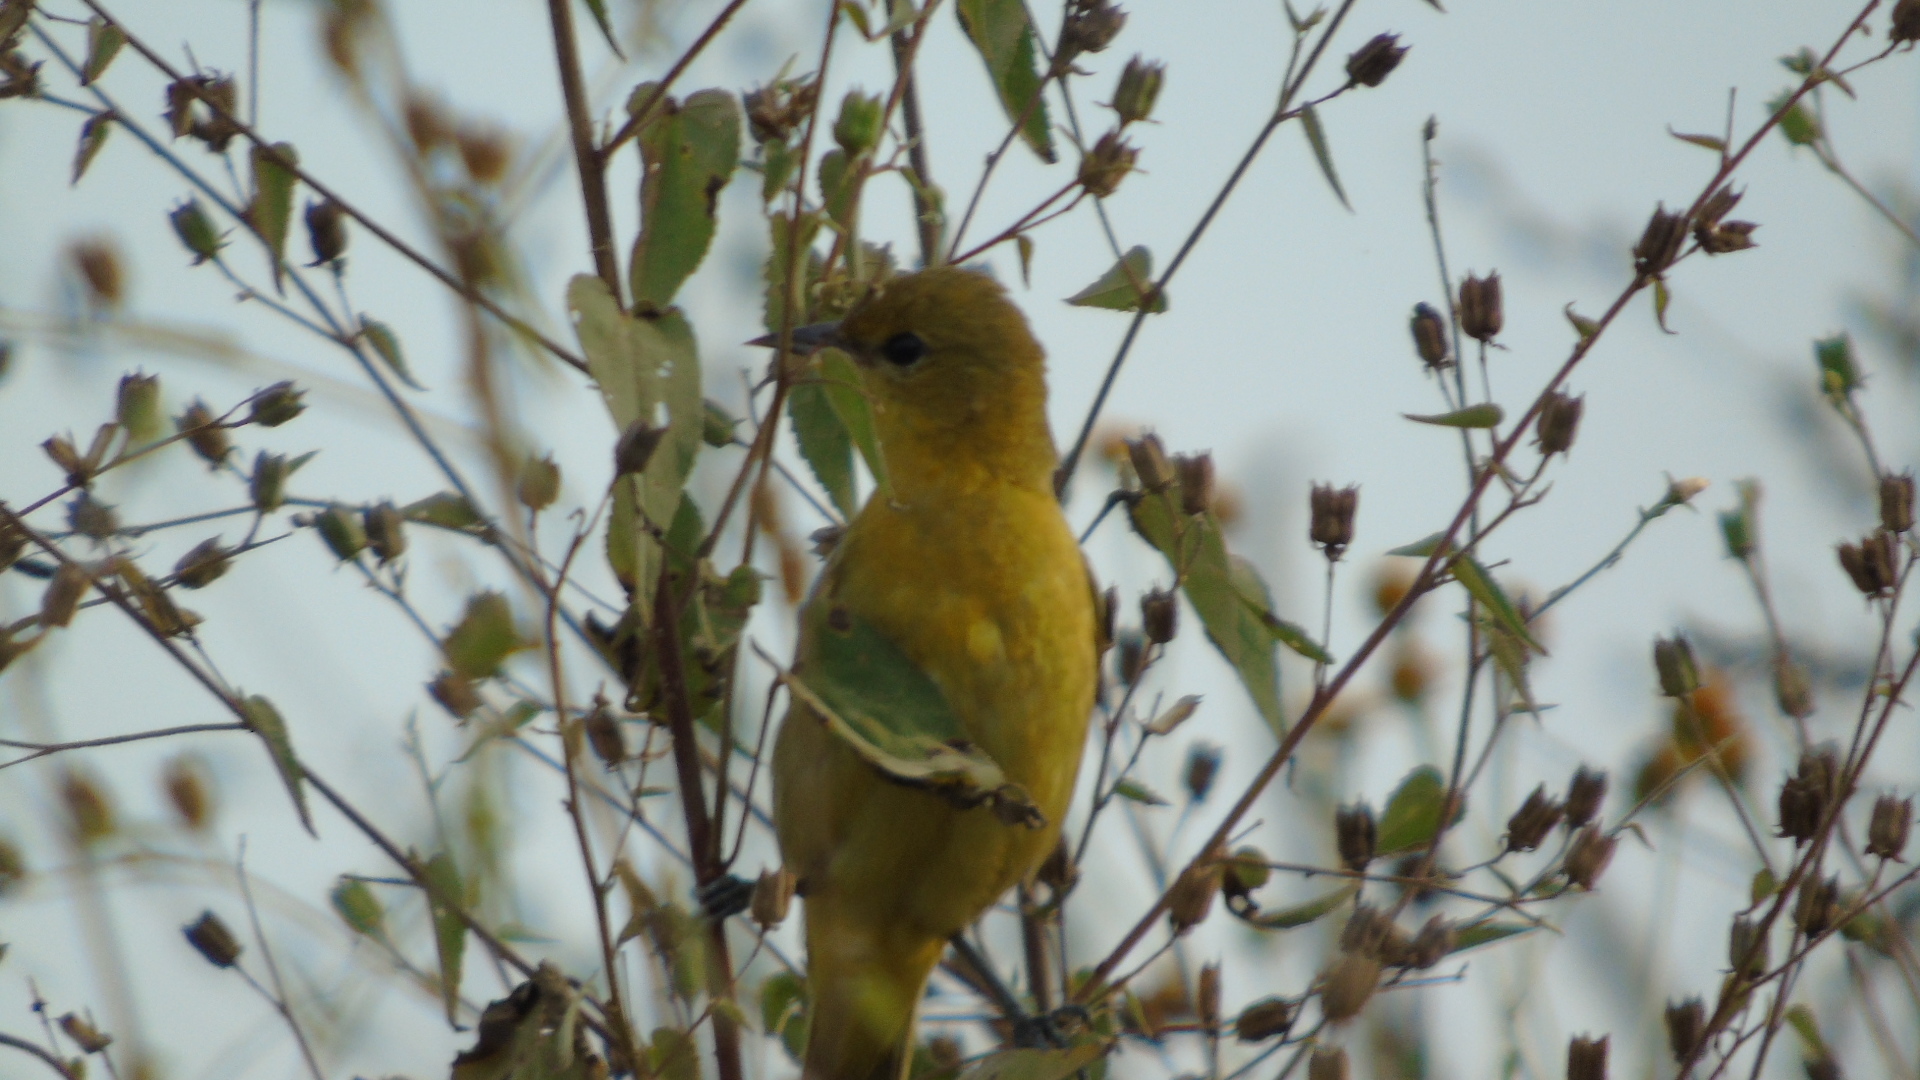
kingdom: Animalia
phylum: Chordata
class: Aves
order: Passeriformes
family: Icteridae
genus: Icterus
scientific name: Icterus
